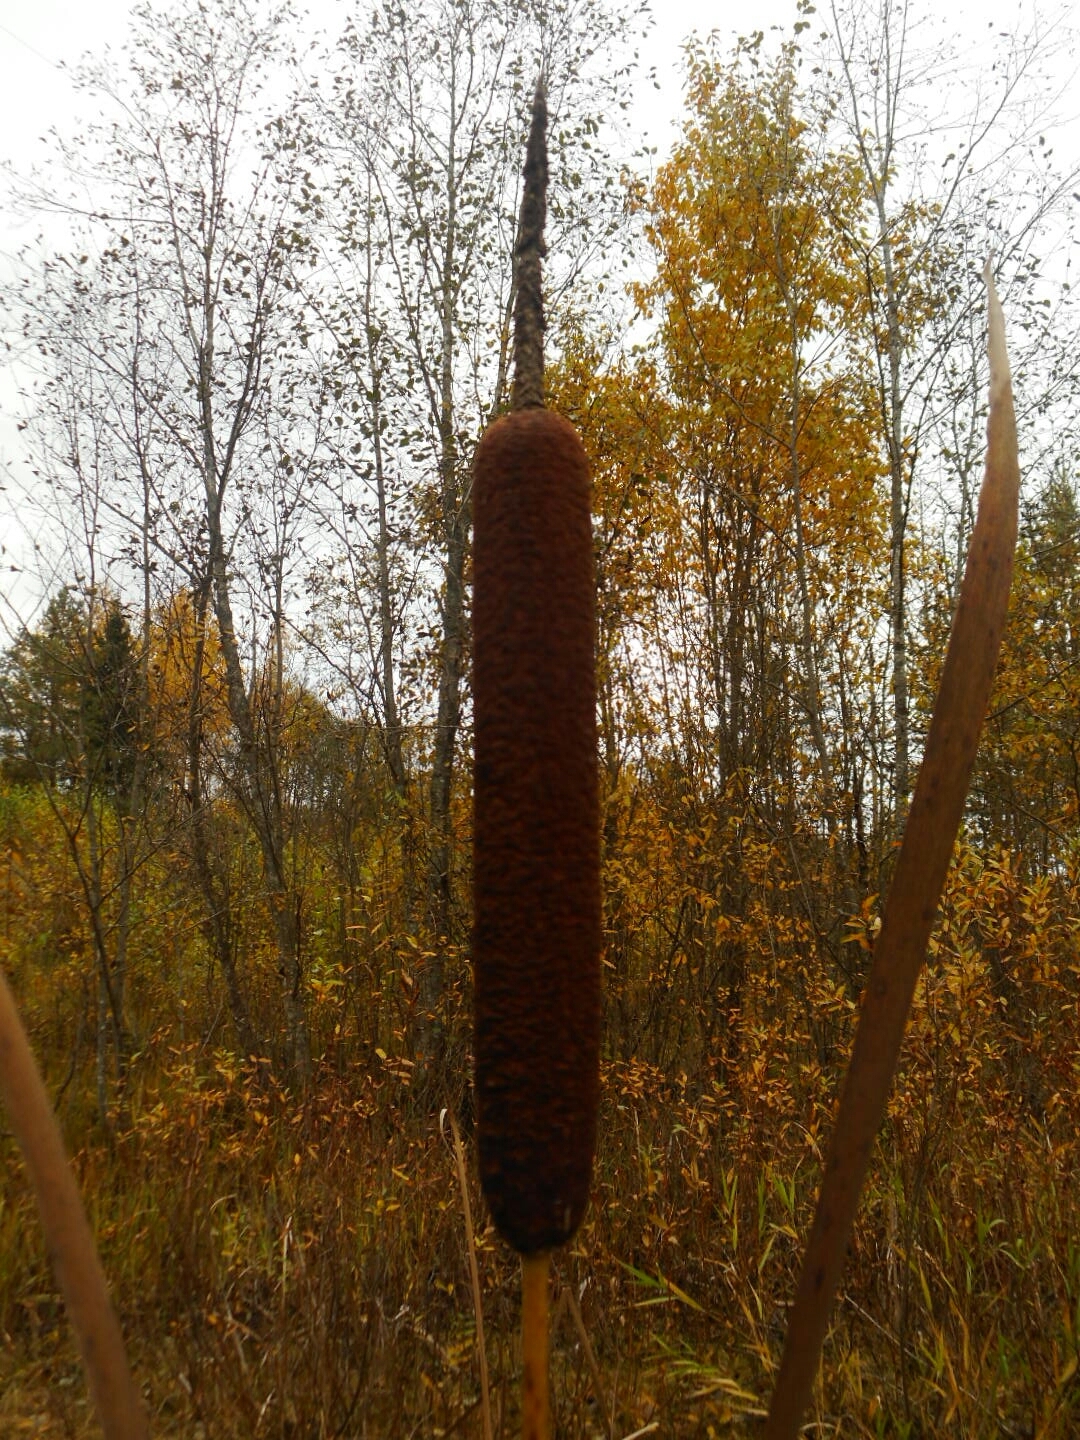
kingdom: Plantae
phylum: Tracheophyta
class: Liliopsida
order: Poales
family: Typhaceae
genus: Typha
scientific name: Typha latifolia
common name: Broadleaf cattail
